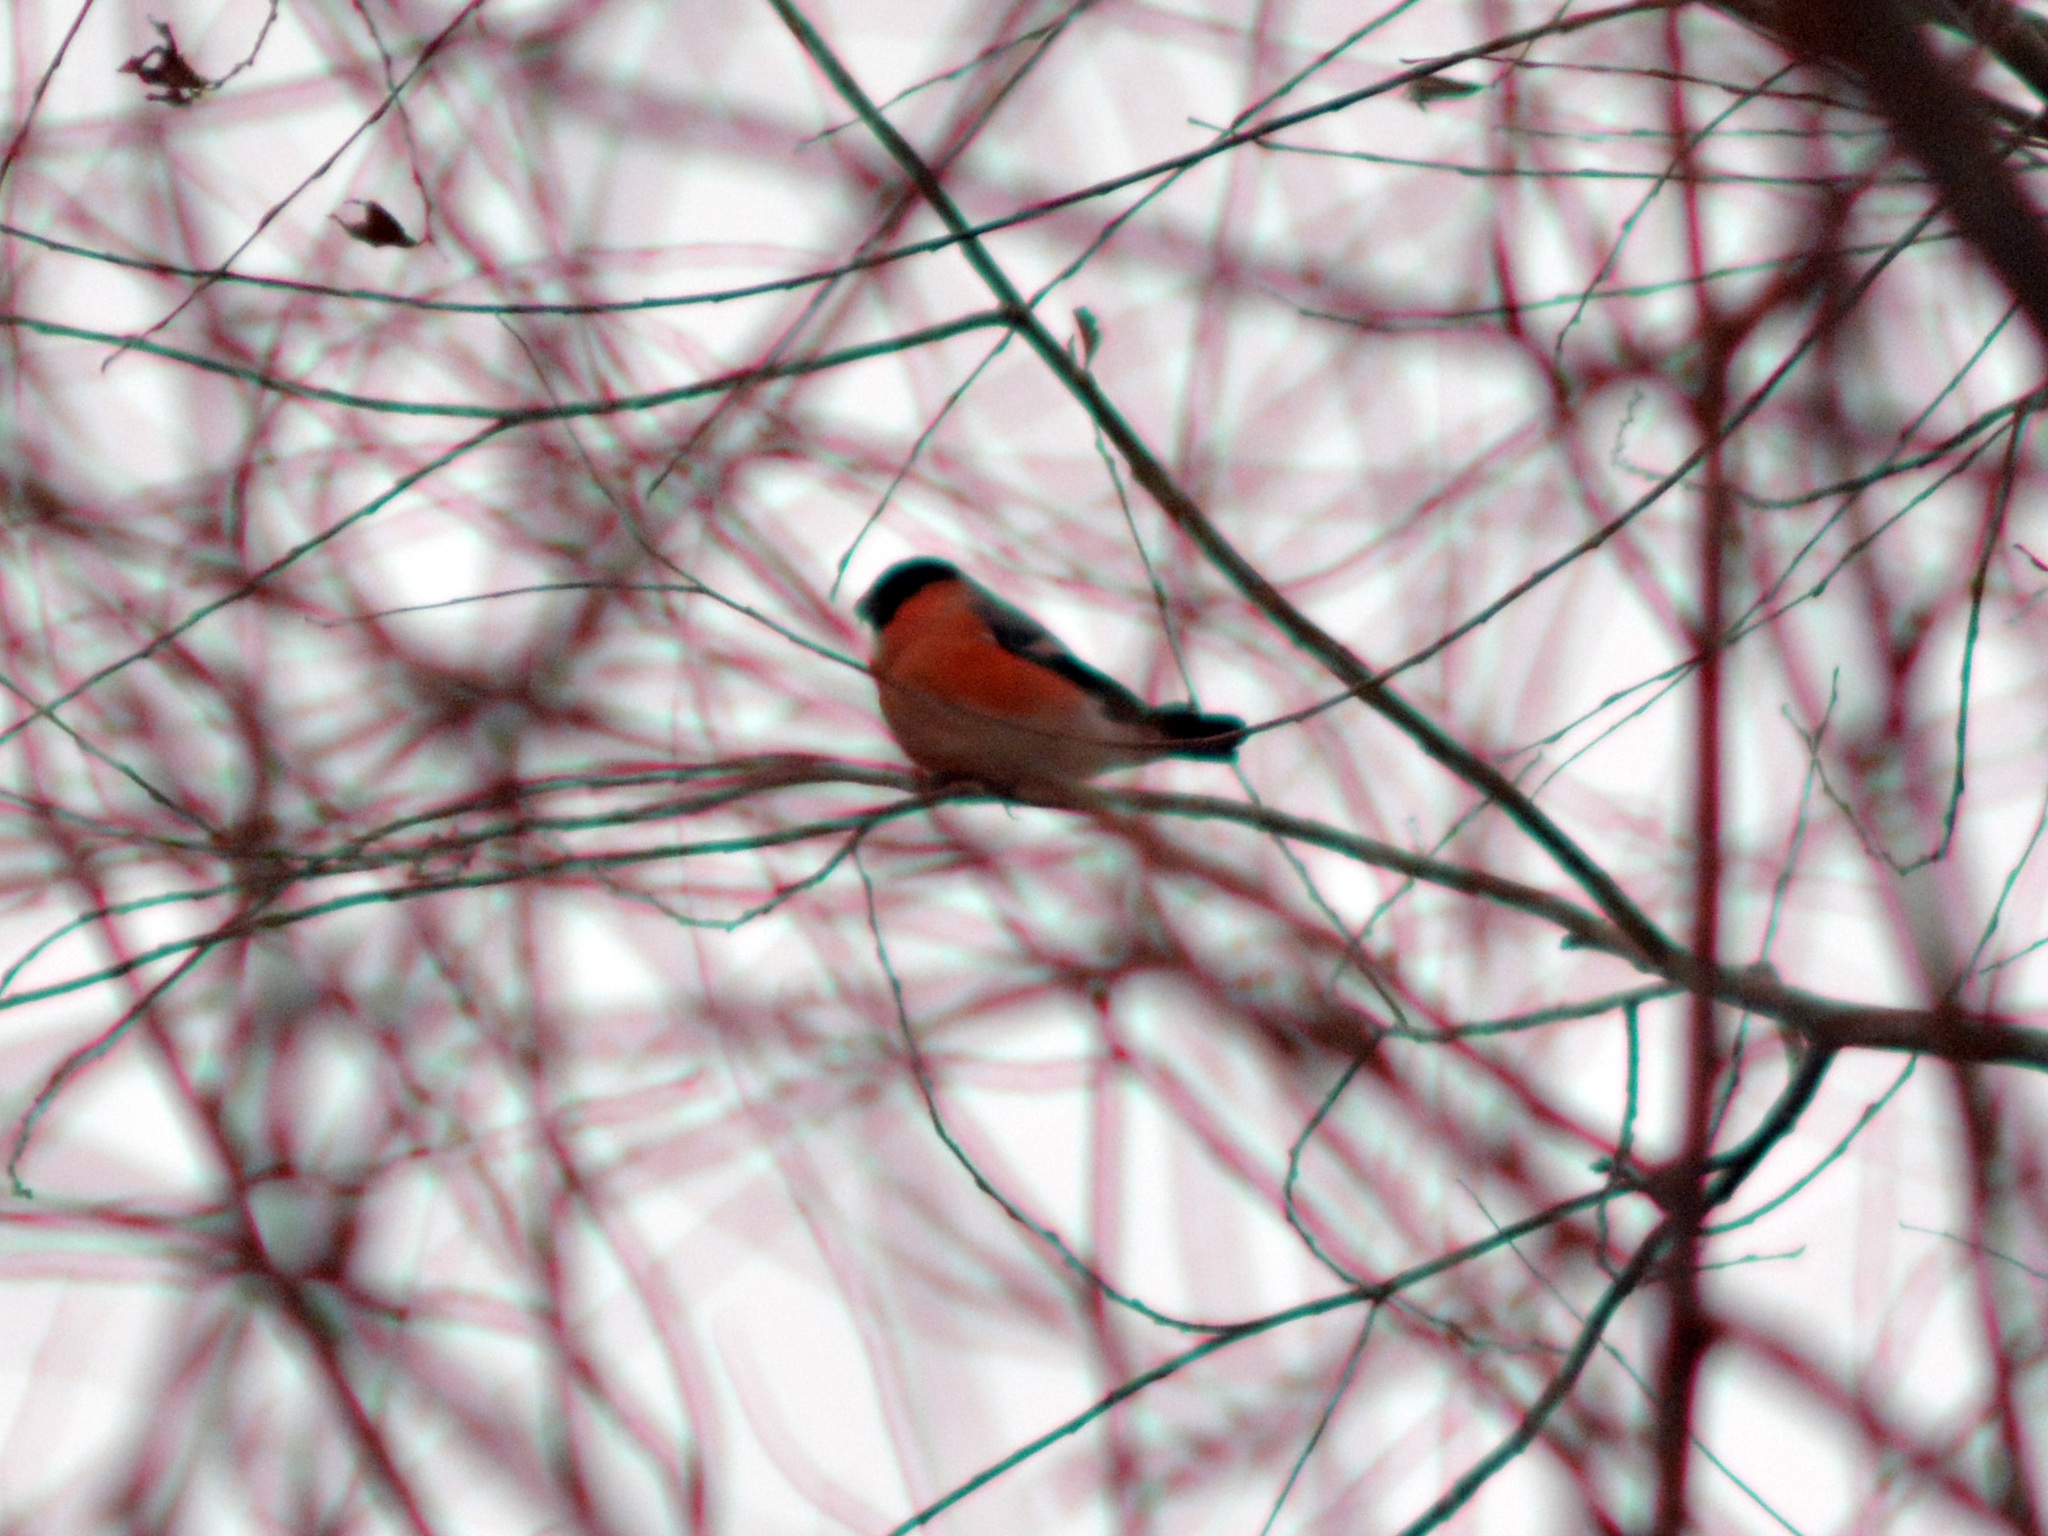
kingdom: Animalia
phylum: Chordata
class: Aves
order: Passeriformes
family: Fringillidae
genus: Pyrrhula
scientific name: Pyrrhula pyrrhula
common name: Eurasian bullfinch
